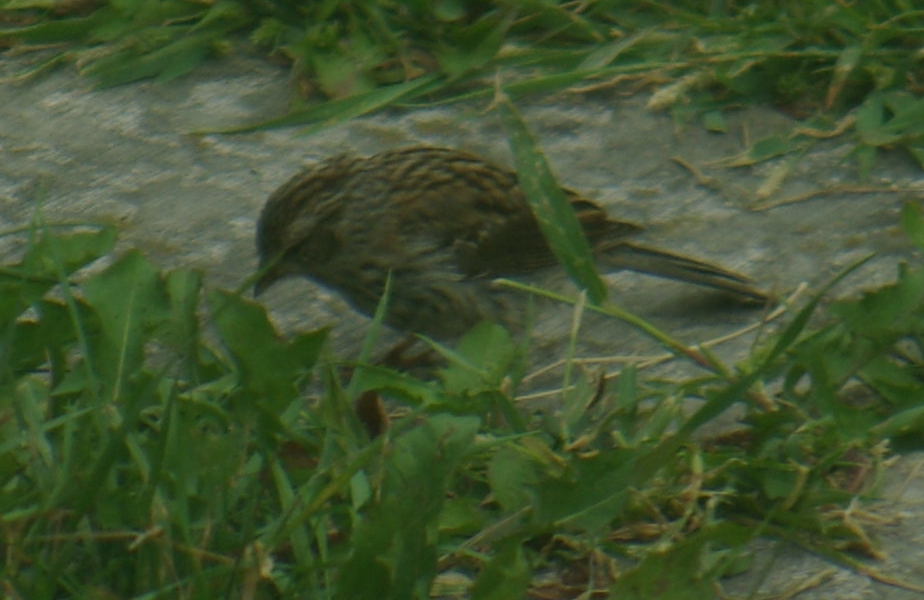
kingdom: Animalia
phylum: Chordata
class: Aves
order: Passeriformes
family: Passerellidae
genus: Spizella
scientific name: Spizella passerina
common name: Chipping sparrow
